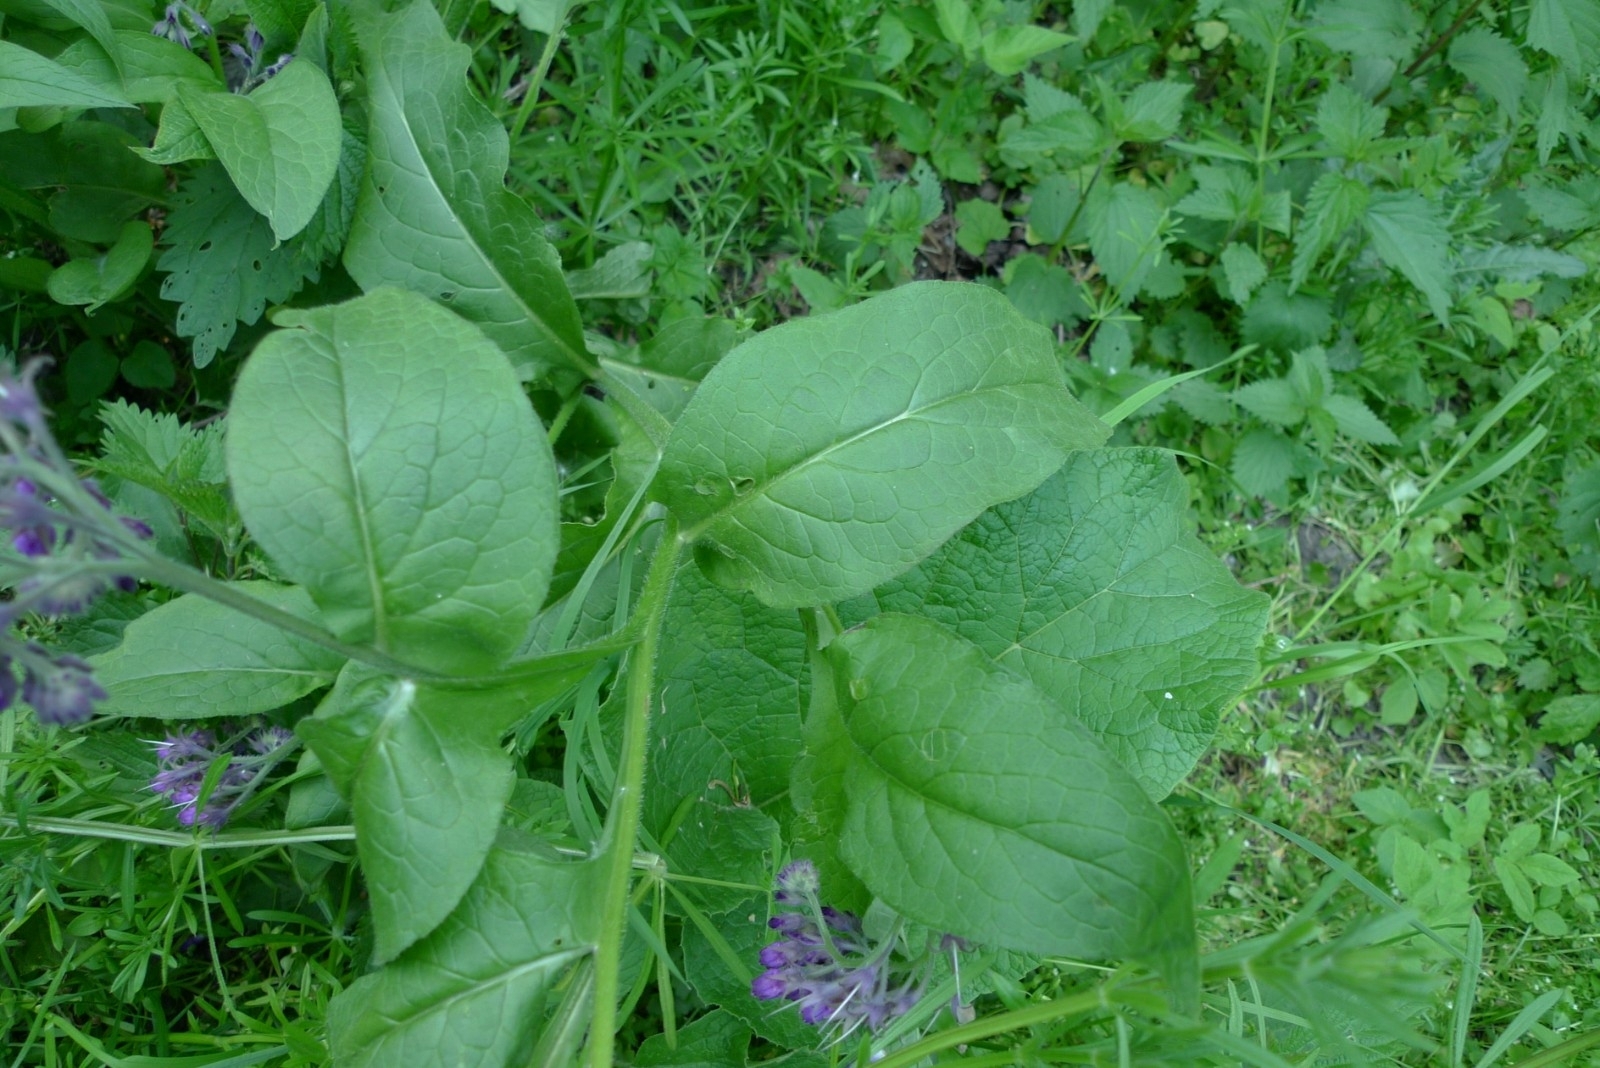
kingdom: Plantae
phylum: Tracheophyta
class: Magnoliopsida
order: Boraginales
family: Boraginaceae
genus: Symphytum
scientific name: Symphytum officinale
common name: Common comfrey
